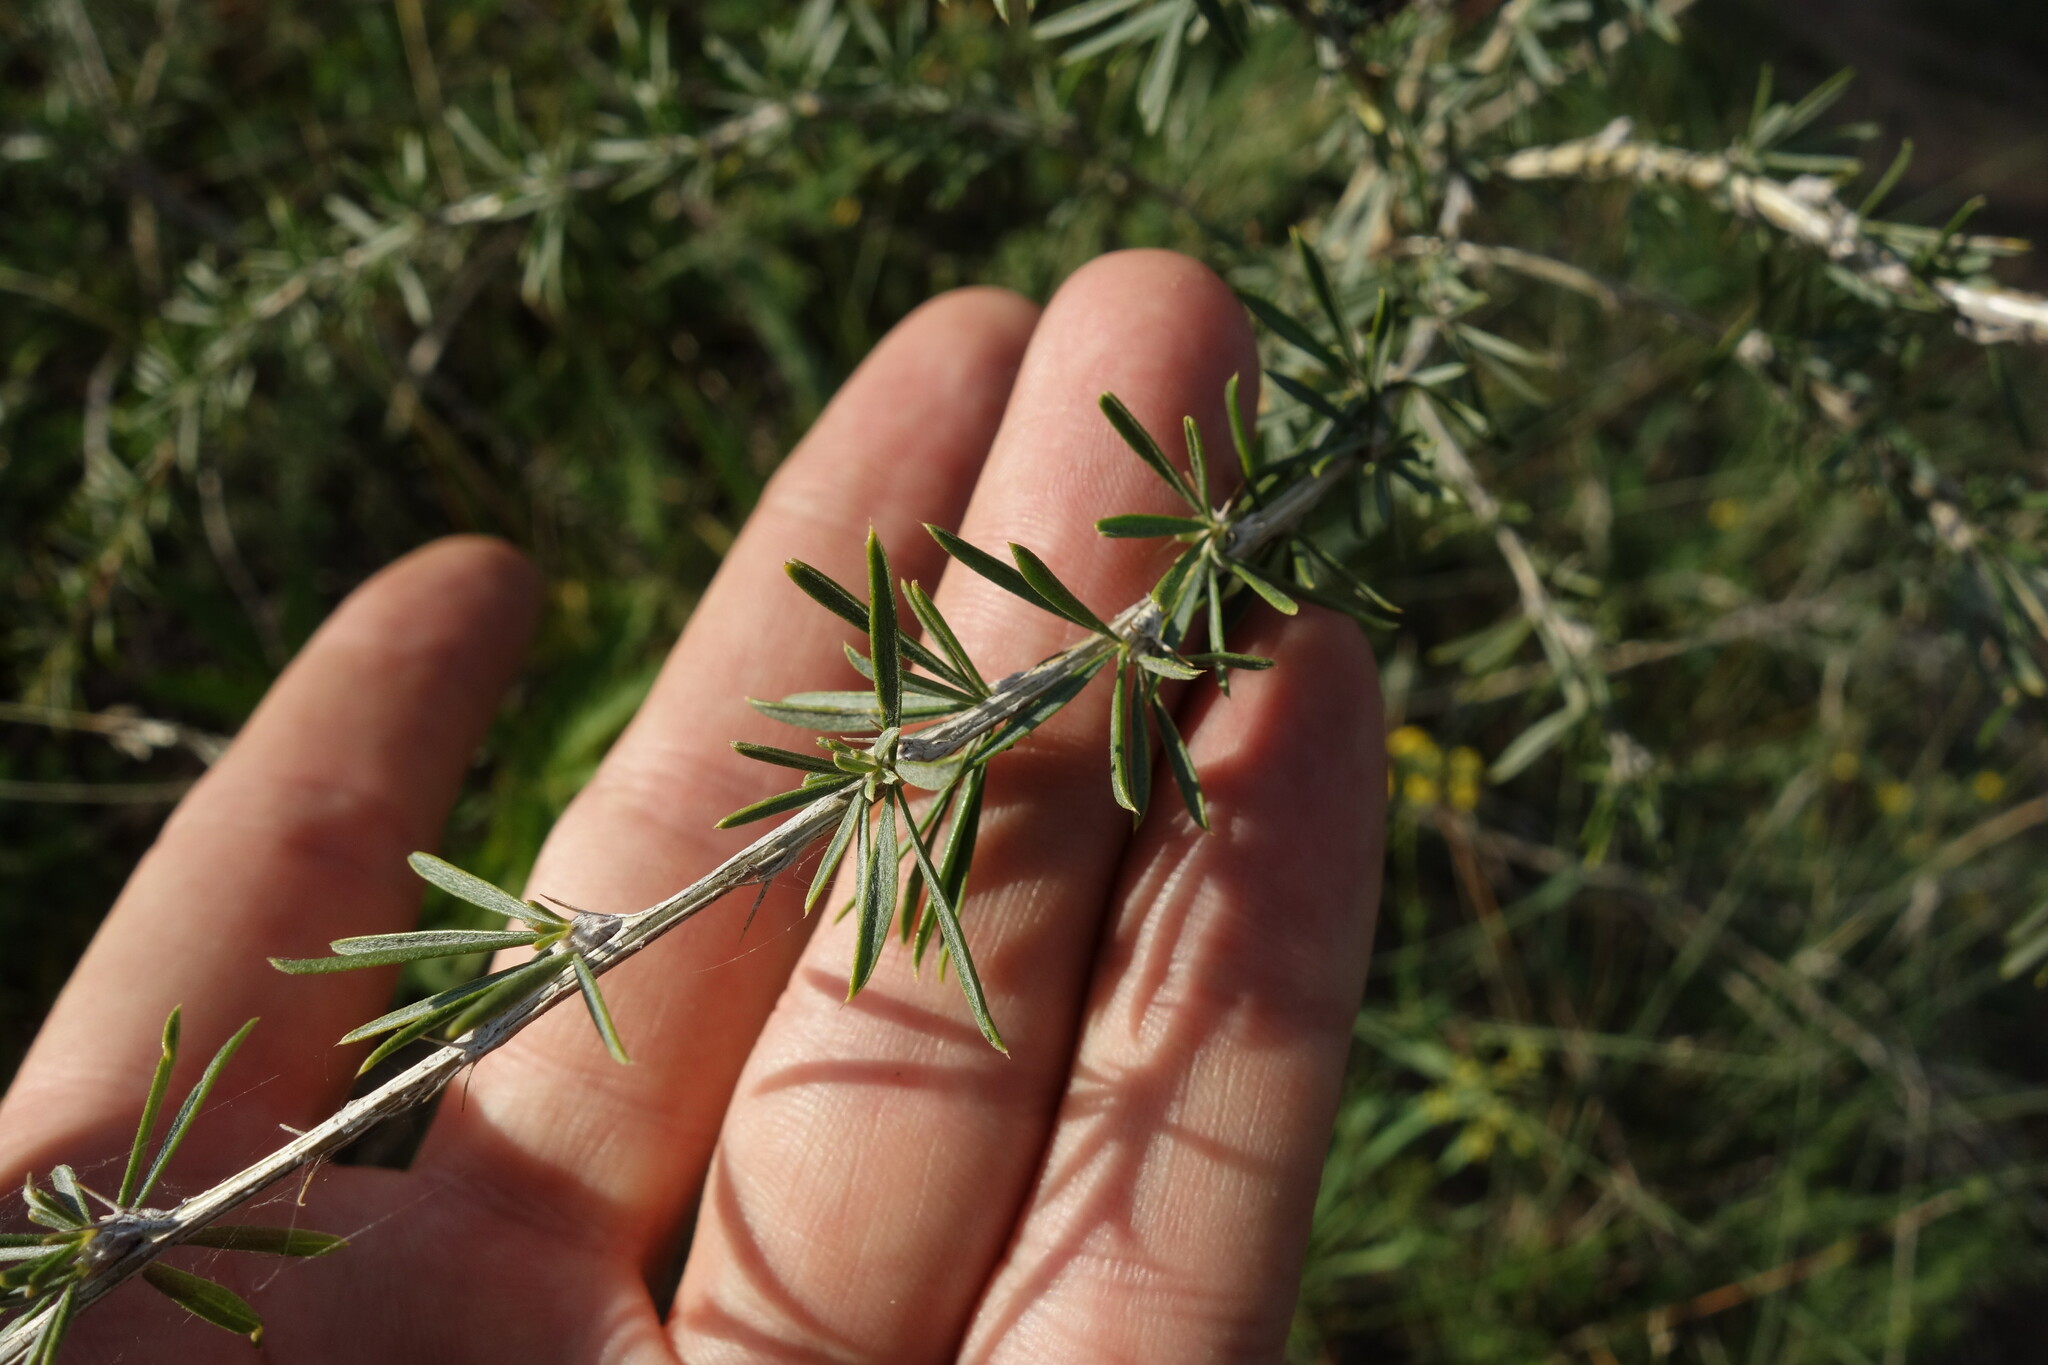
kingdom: Plantae
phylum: Tracheophyta
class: Magnoliopsida
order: Fabales
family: Fabaceae
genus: Caragana
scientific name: Caragana pygmaea
